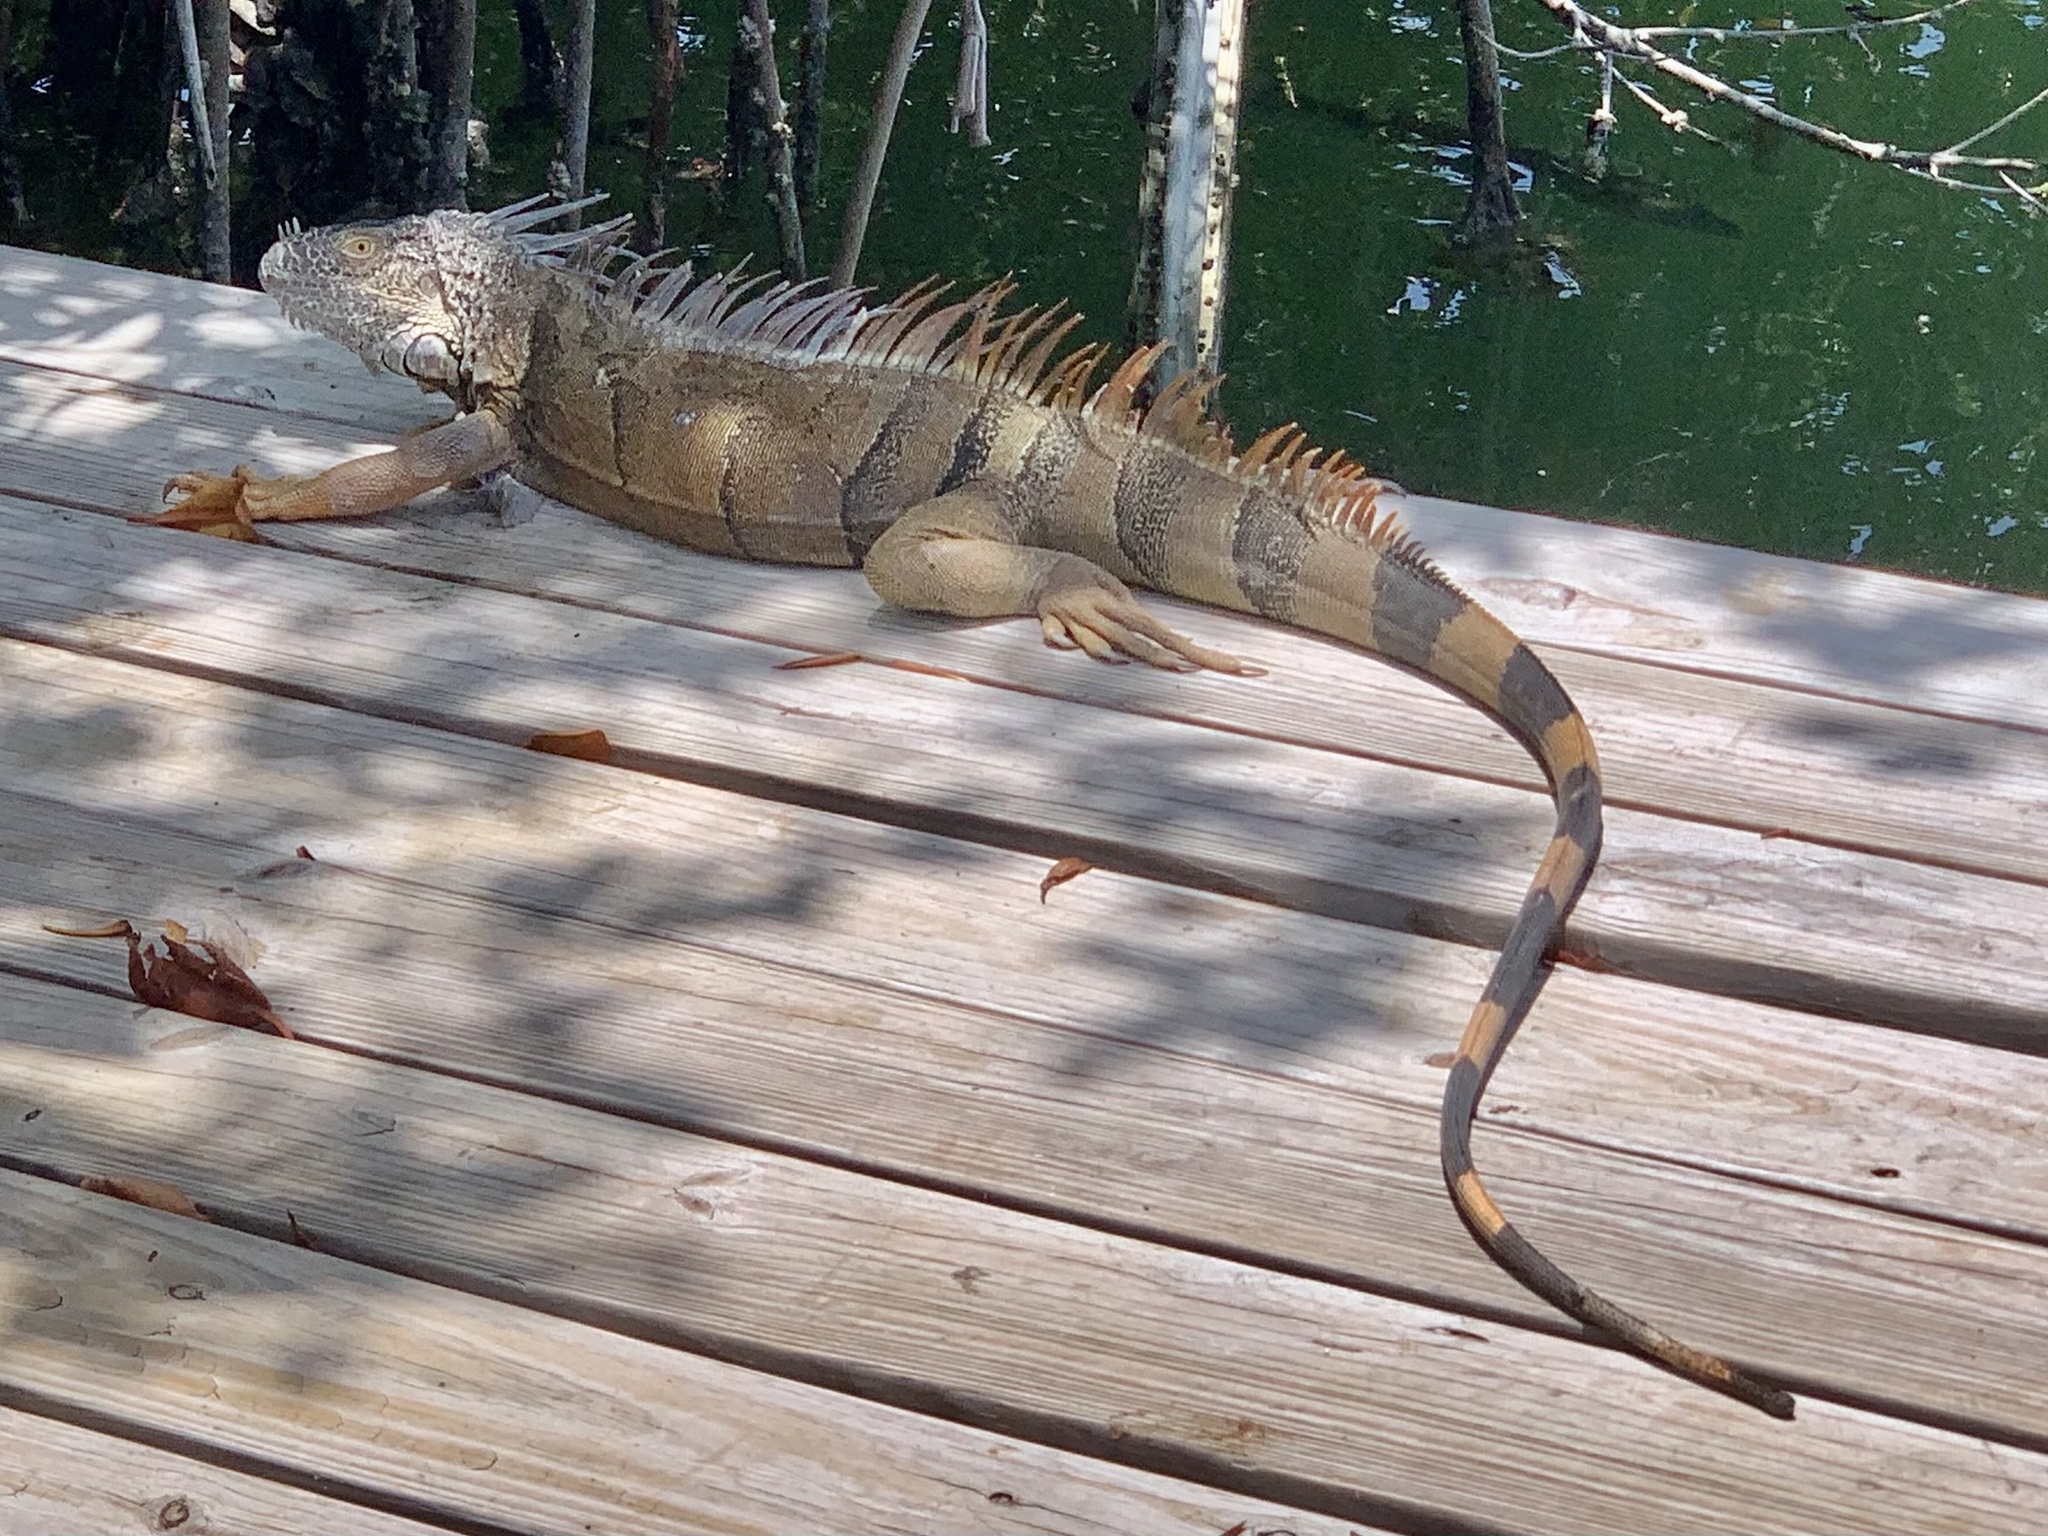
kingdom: Animalia
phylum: Chordata
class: Squamata
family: Iguanidae
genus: Iguana
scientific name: Iguana iguana
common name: Green iguana
